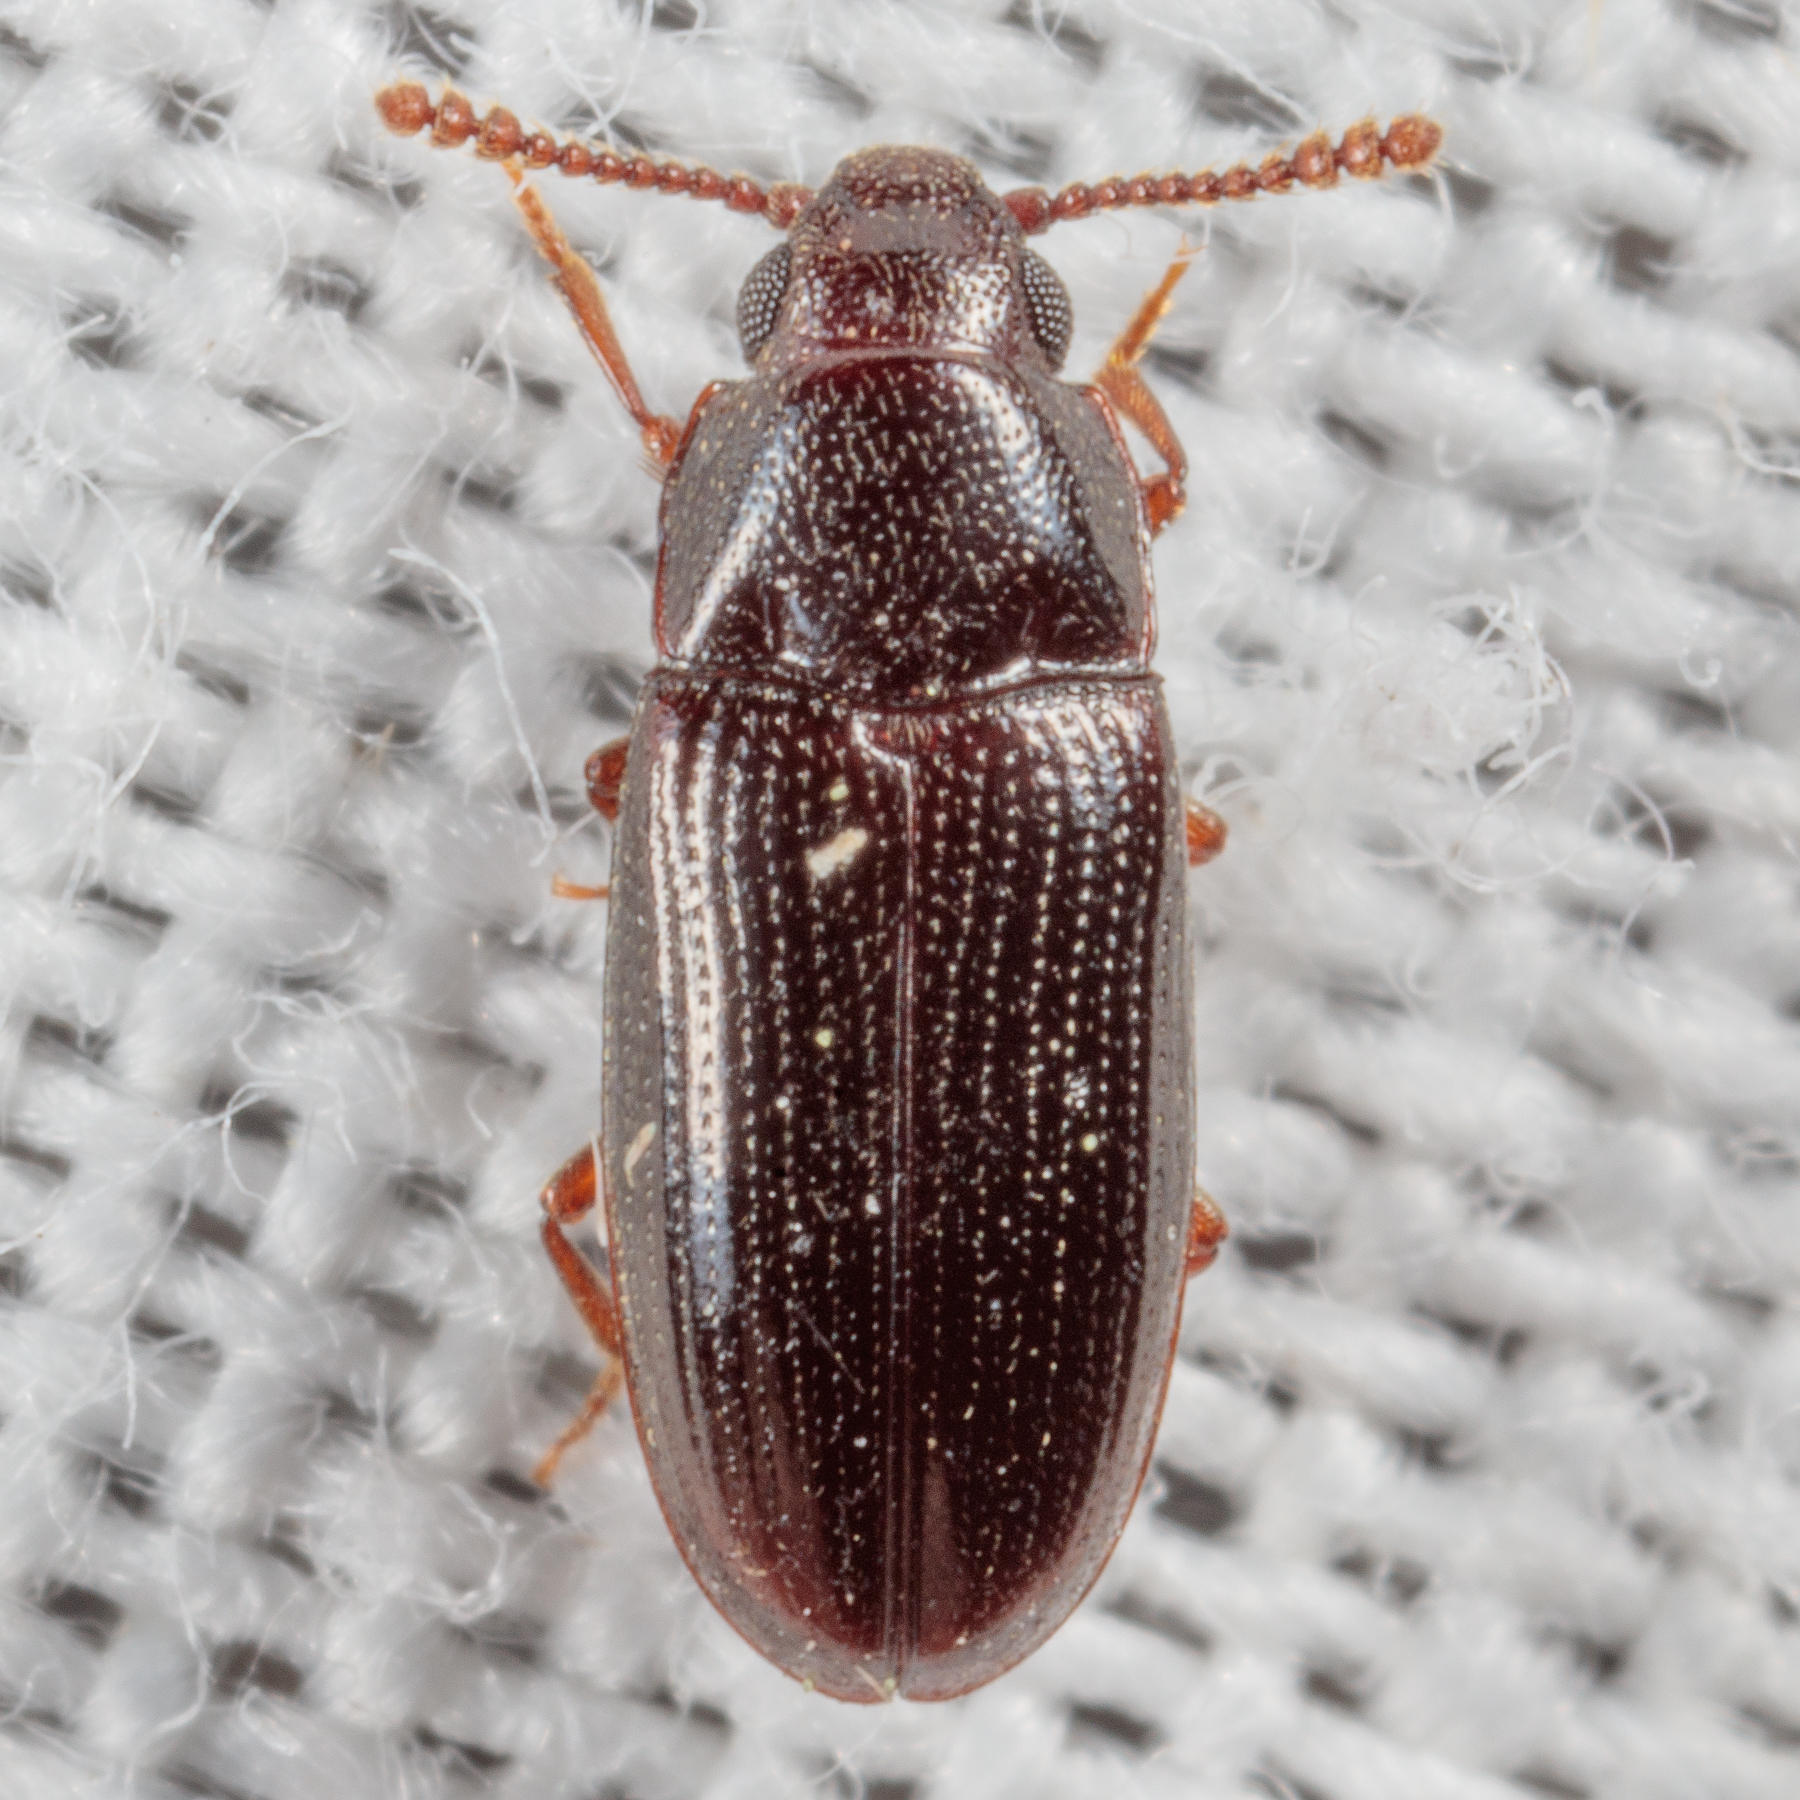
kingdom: Animalia
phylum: Arthropoda
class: Insecta
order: Coleoptera
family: Erotylidae
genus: Pharaxonotha
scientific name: Pharaxonotha kirschii
